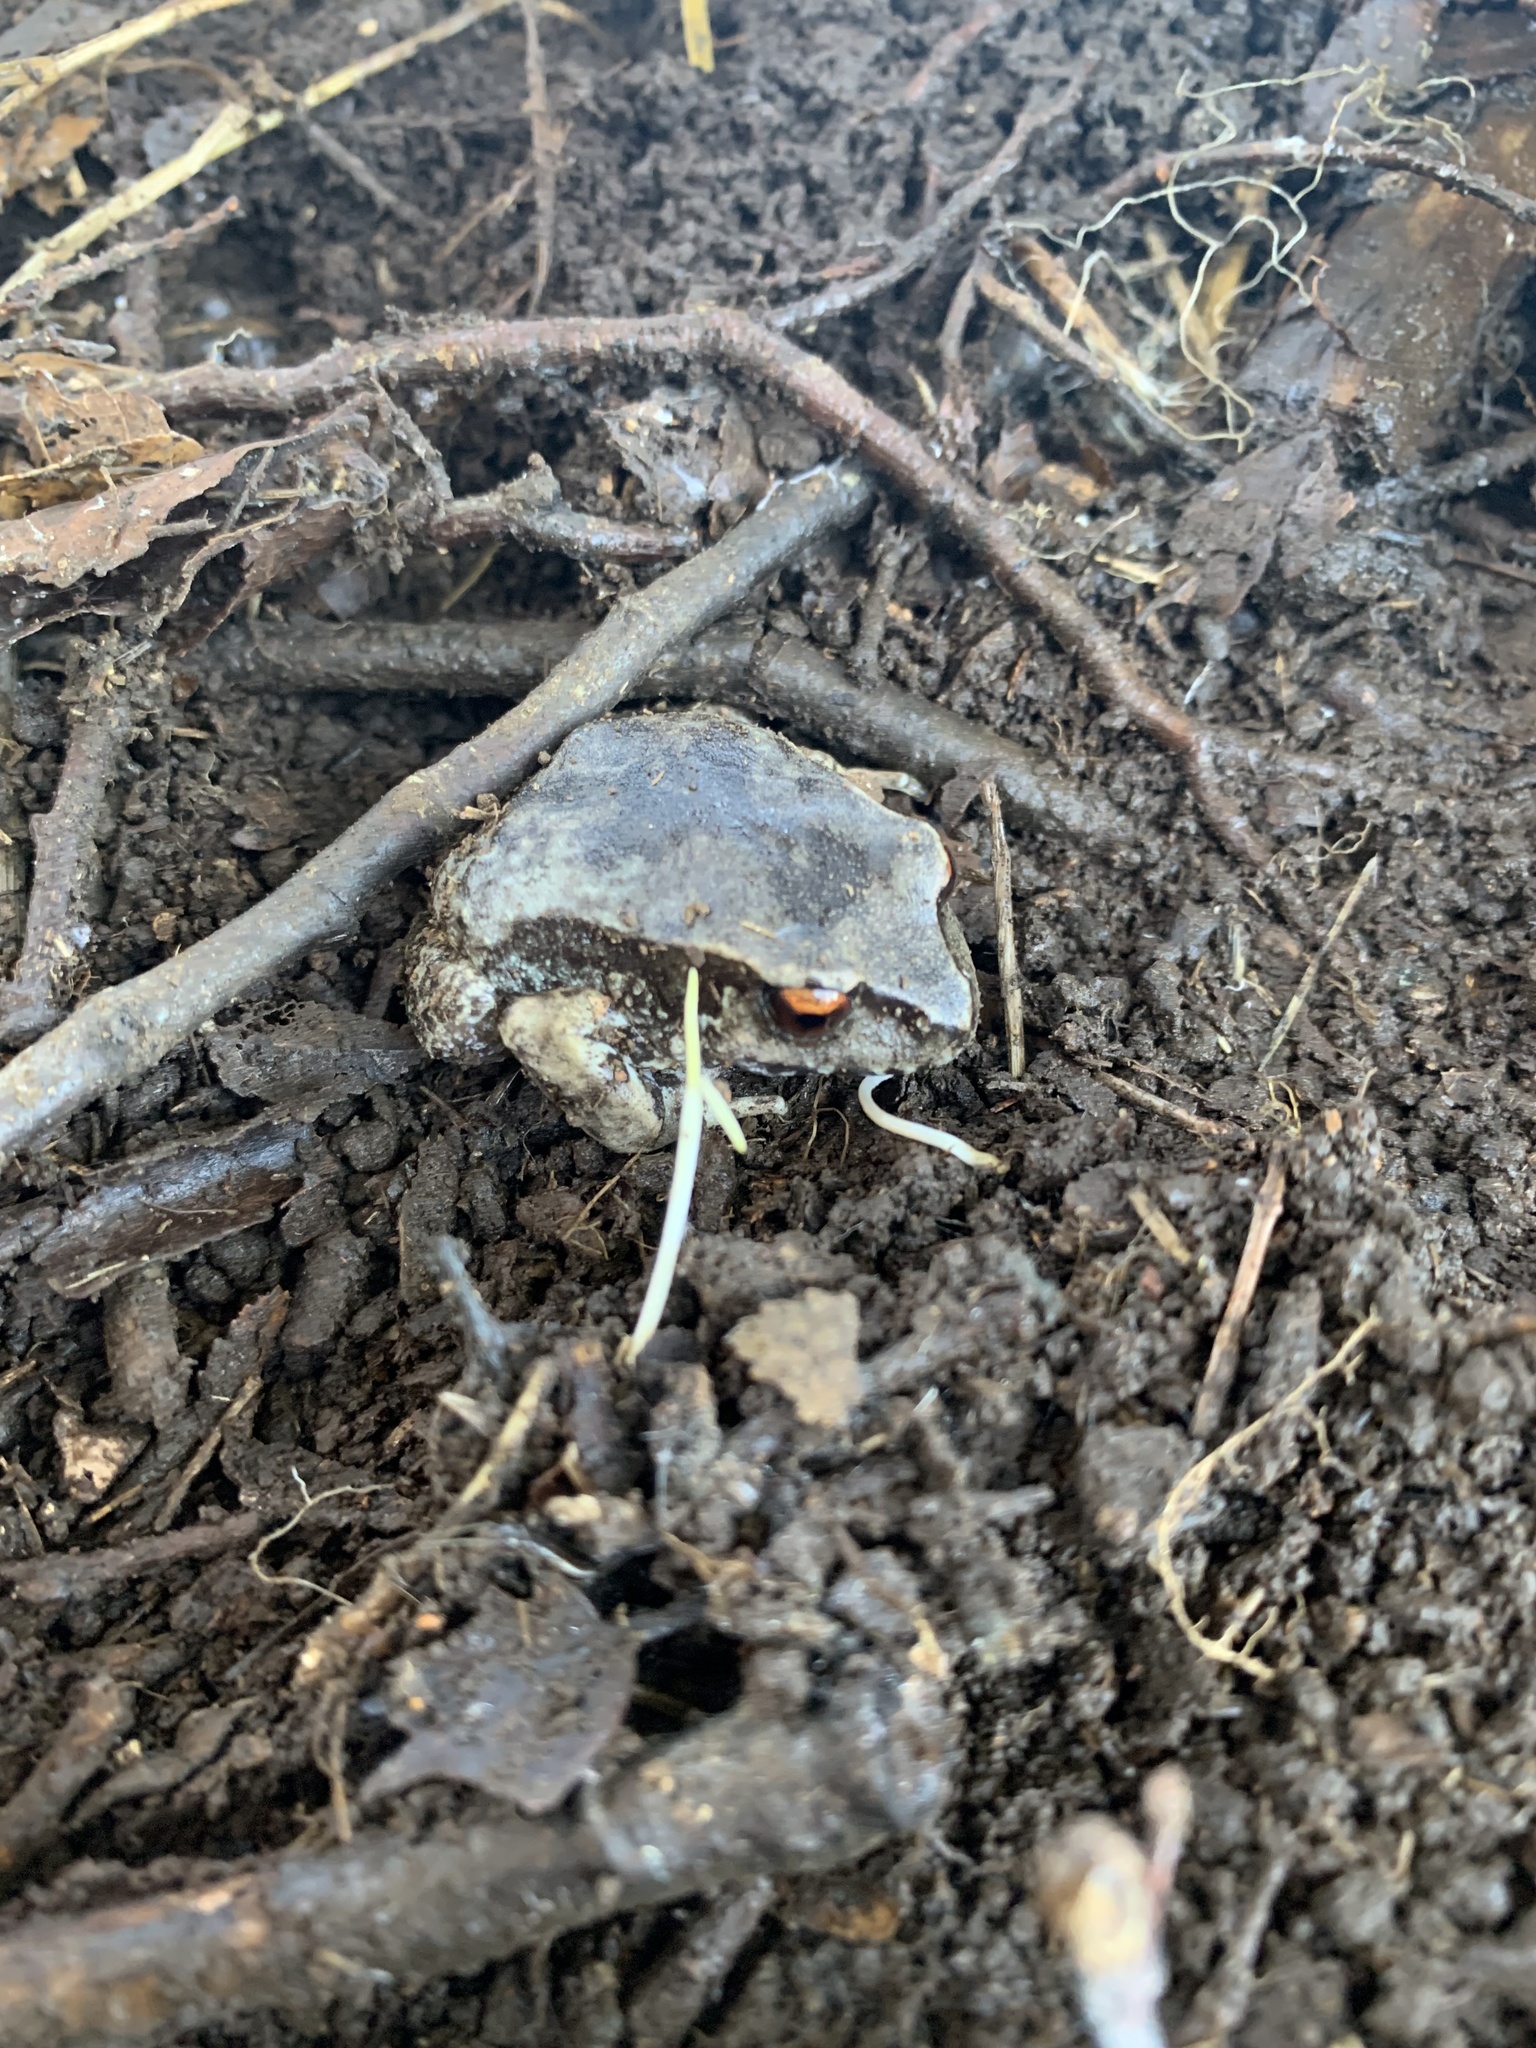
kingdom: Animalia
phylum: Chordata
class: Amphibia
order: Anura
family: Alsodidae
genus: Eupsophus
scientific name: Eupsophus roseus
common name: Rosy ground frog
